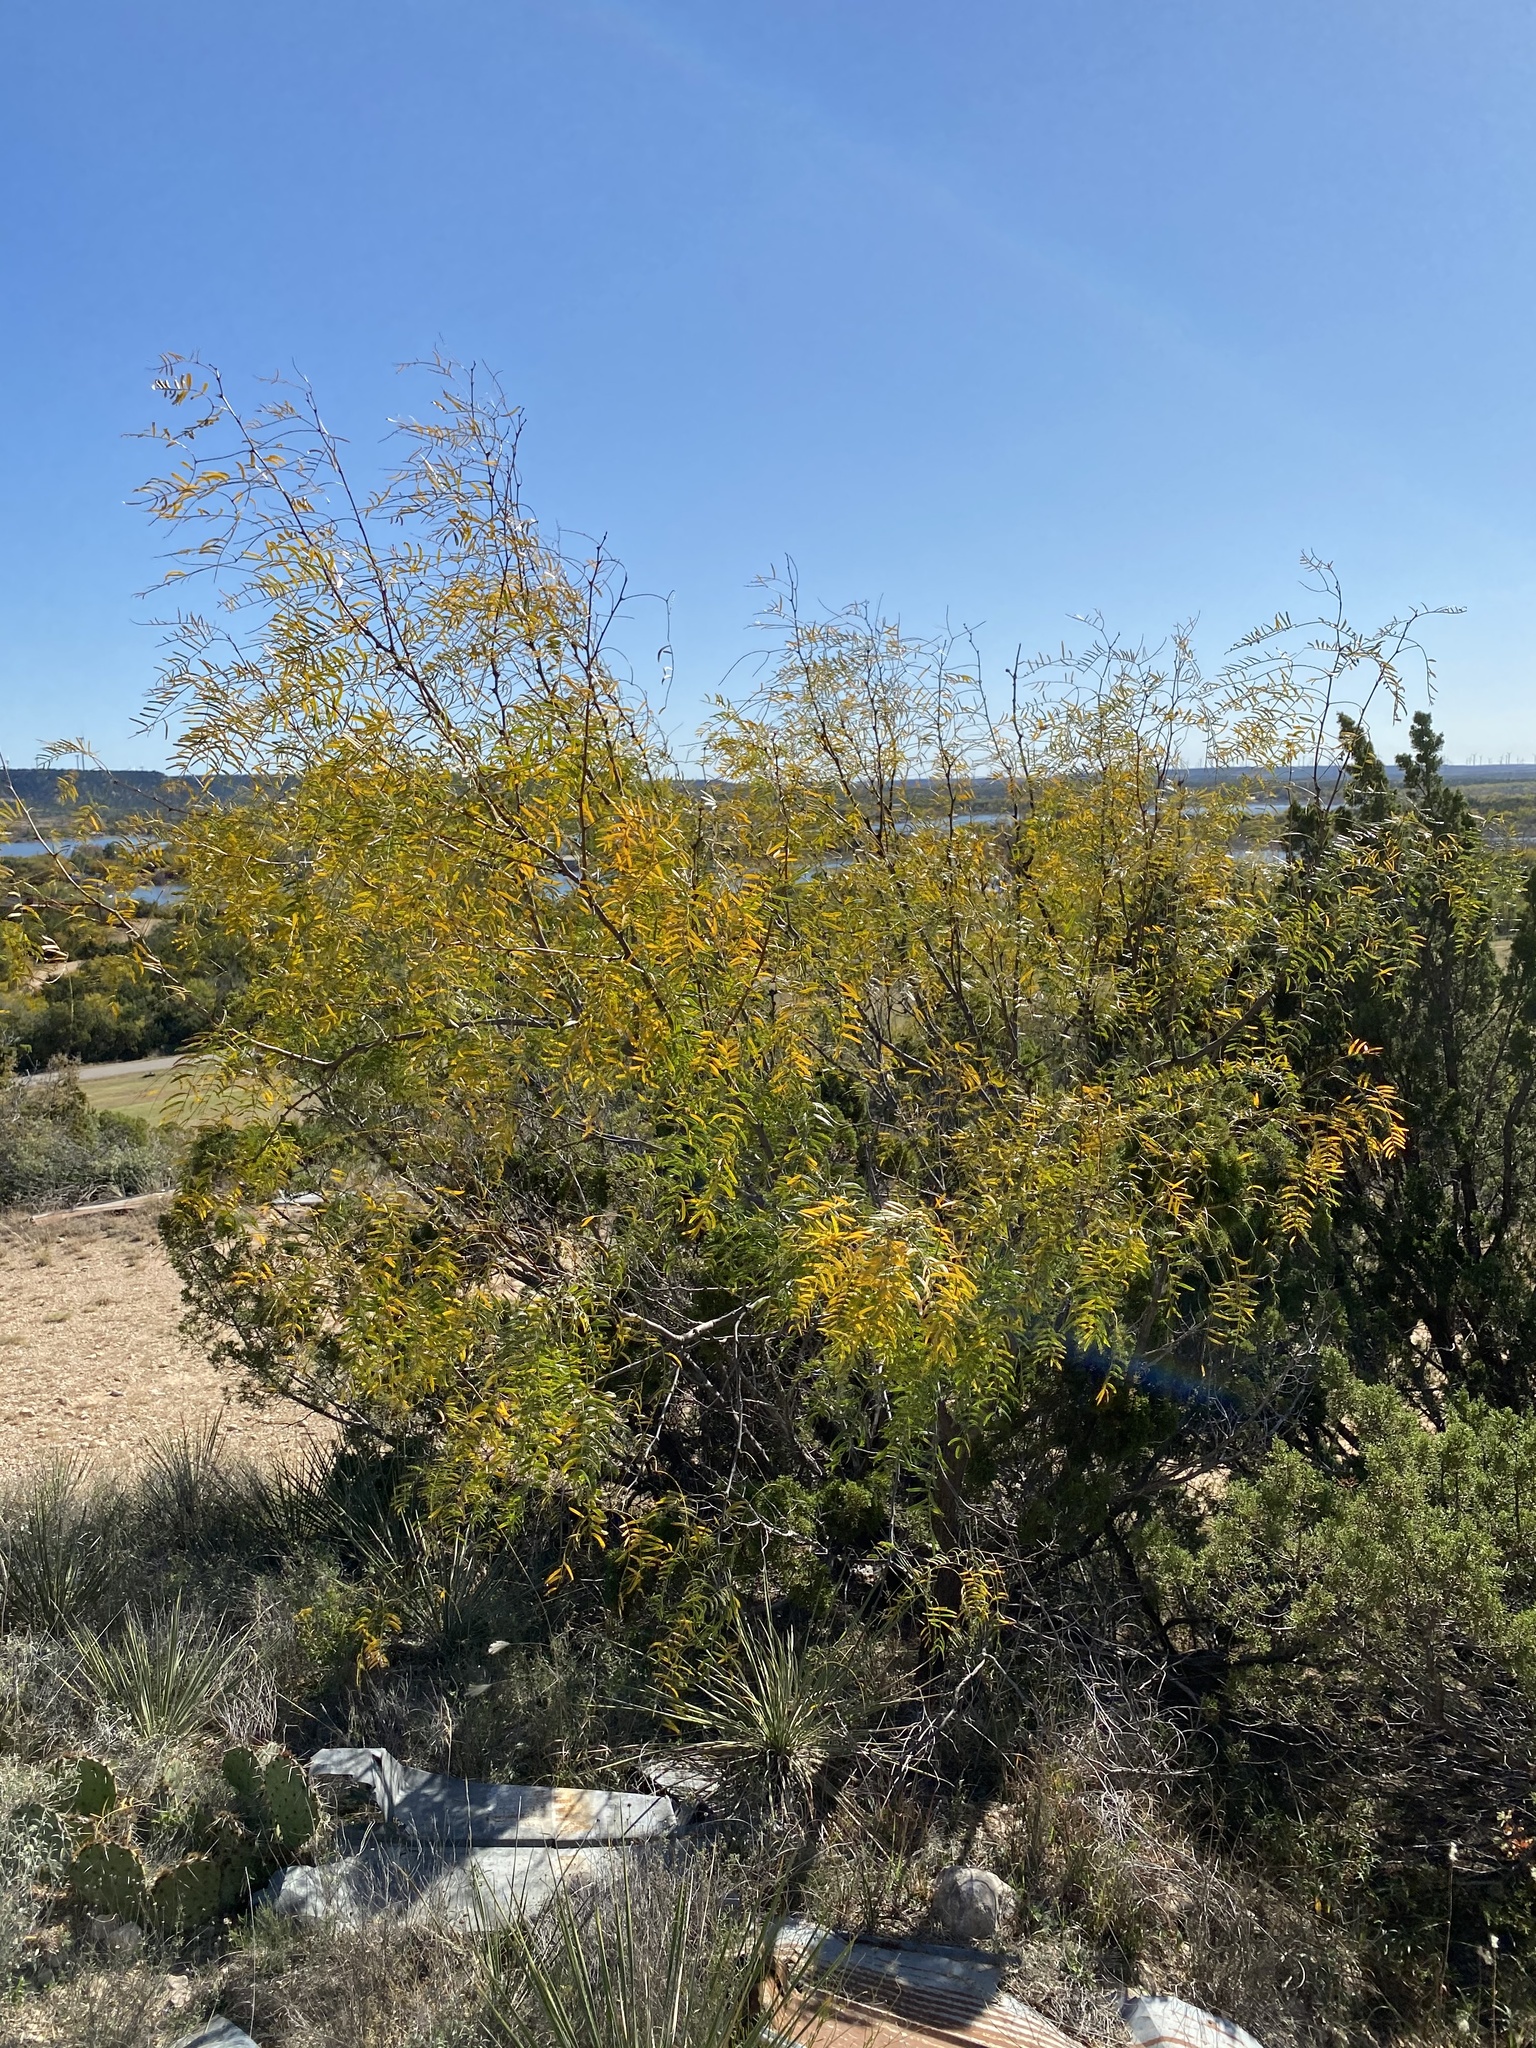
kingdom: Plantae
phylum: Tracheophyta
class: Magnoliopsida
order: Fabales
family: Fabaceae
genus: Prosopis
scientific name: Prosopis glandulosa
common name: Honey mesquite
